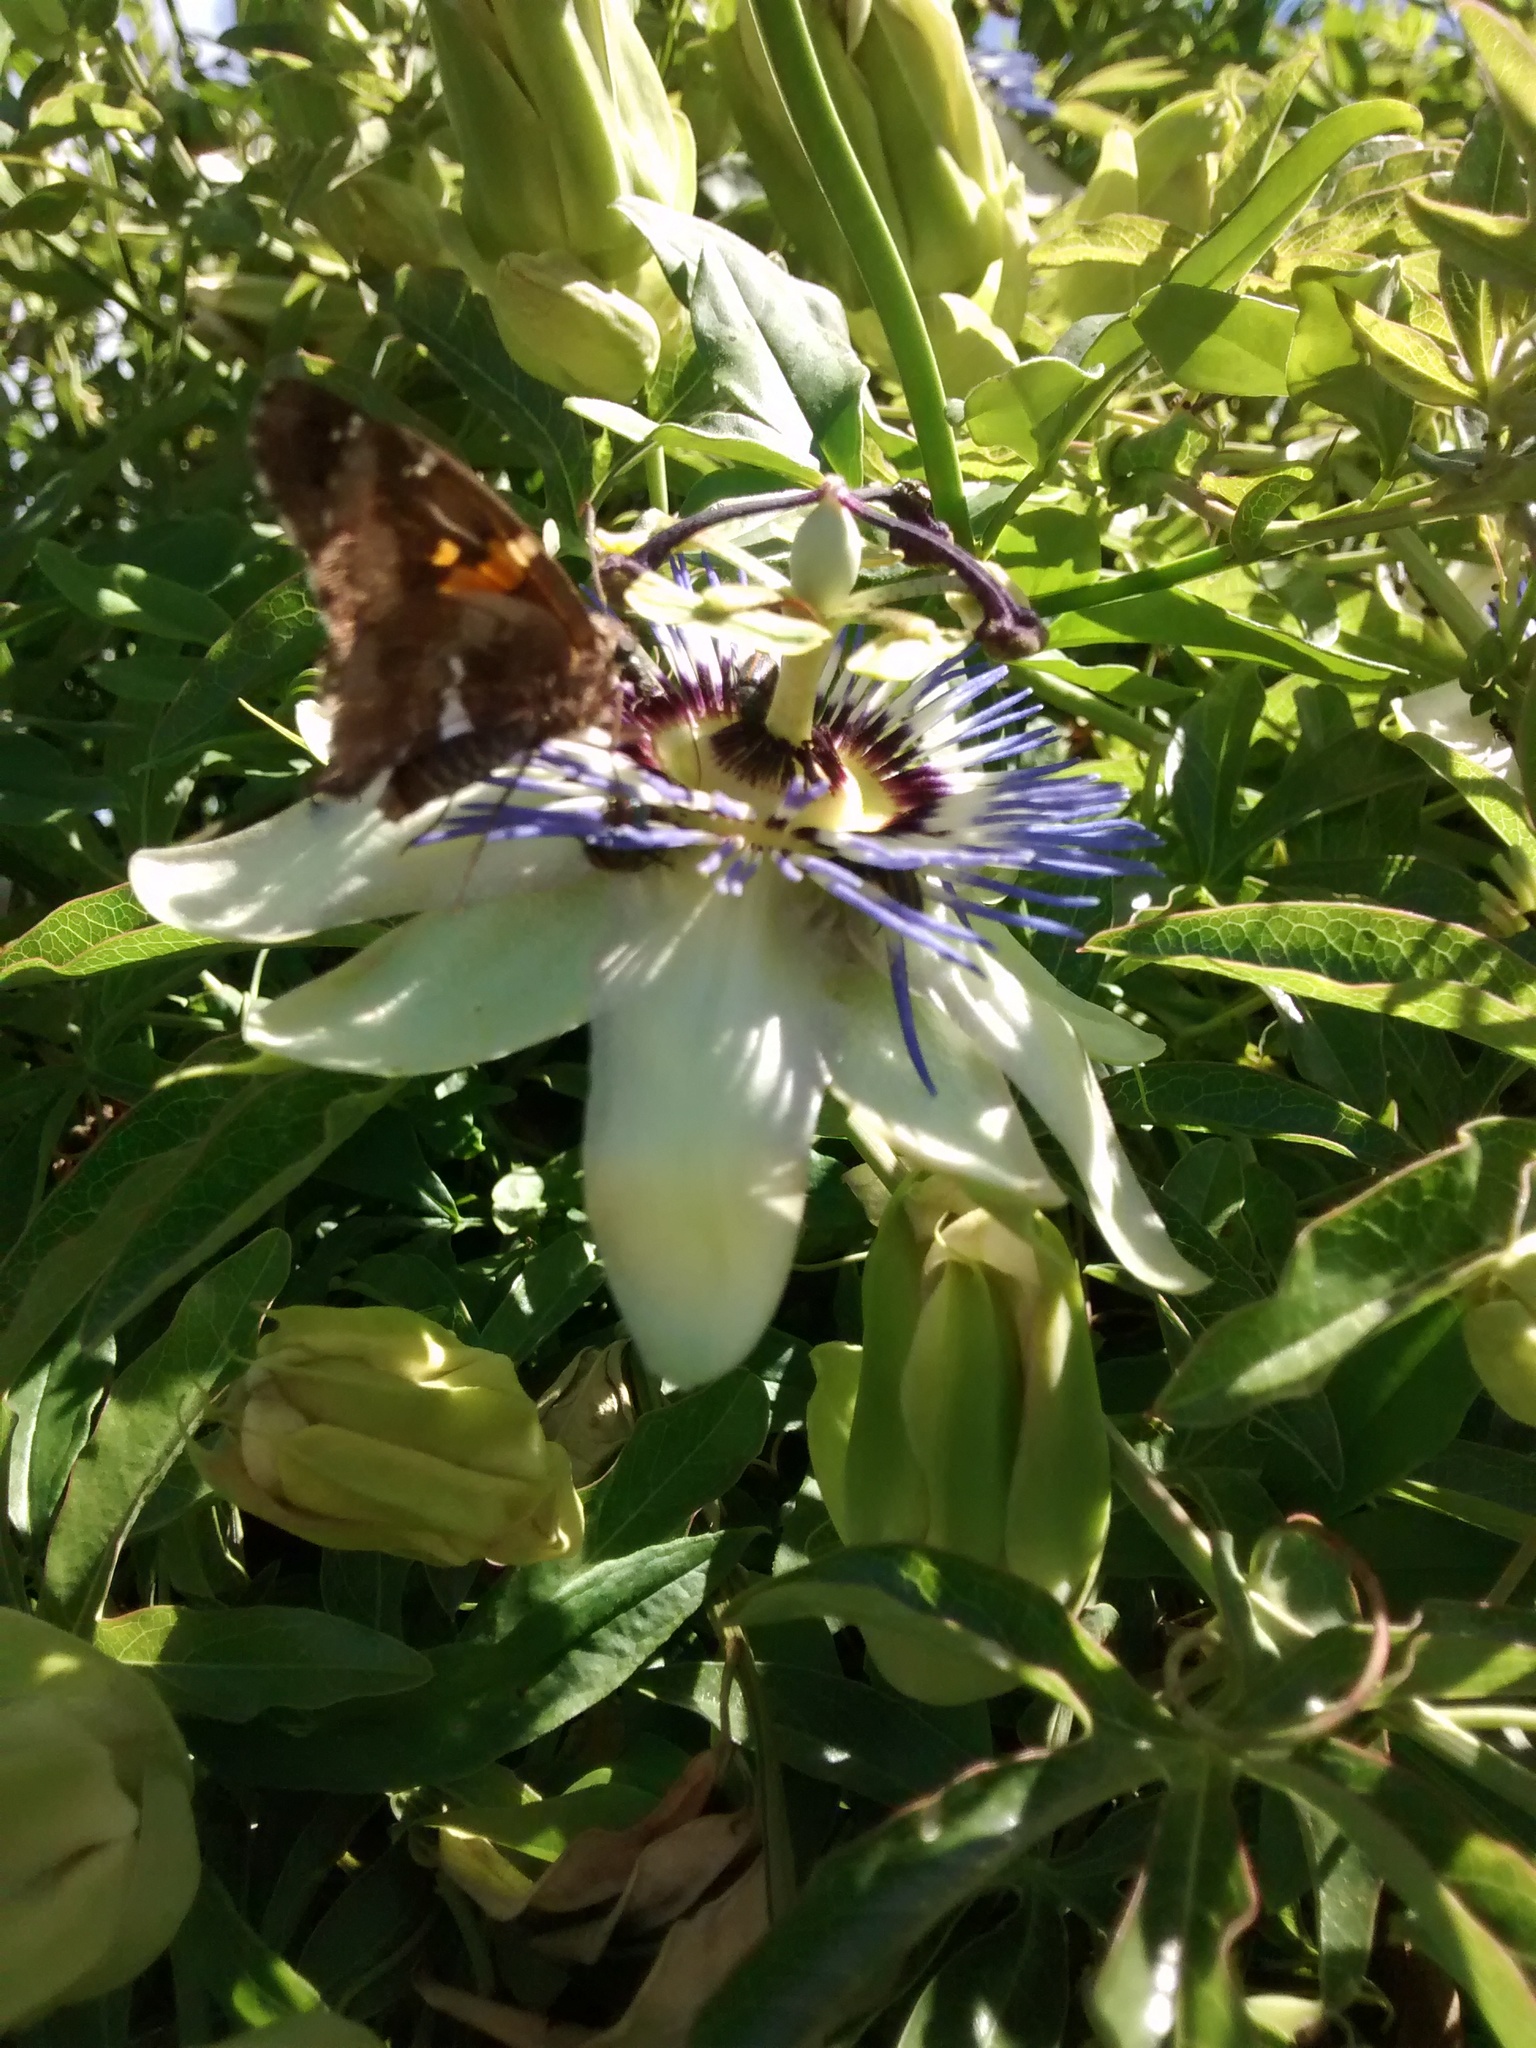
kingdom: Animalia
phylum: Arthropoda
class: Insecta
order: Lepidoptera
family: Hesperiidae
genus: Epargyreus
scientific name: Epargyreus tmolis
